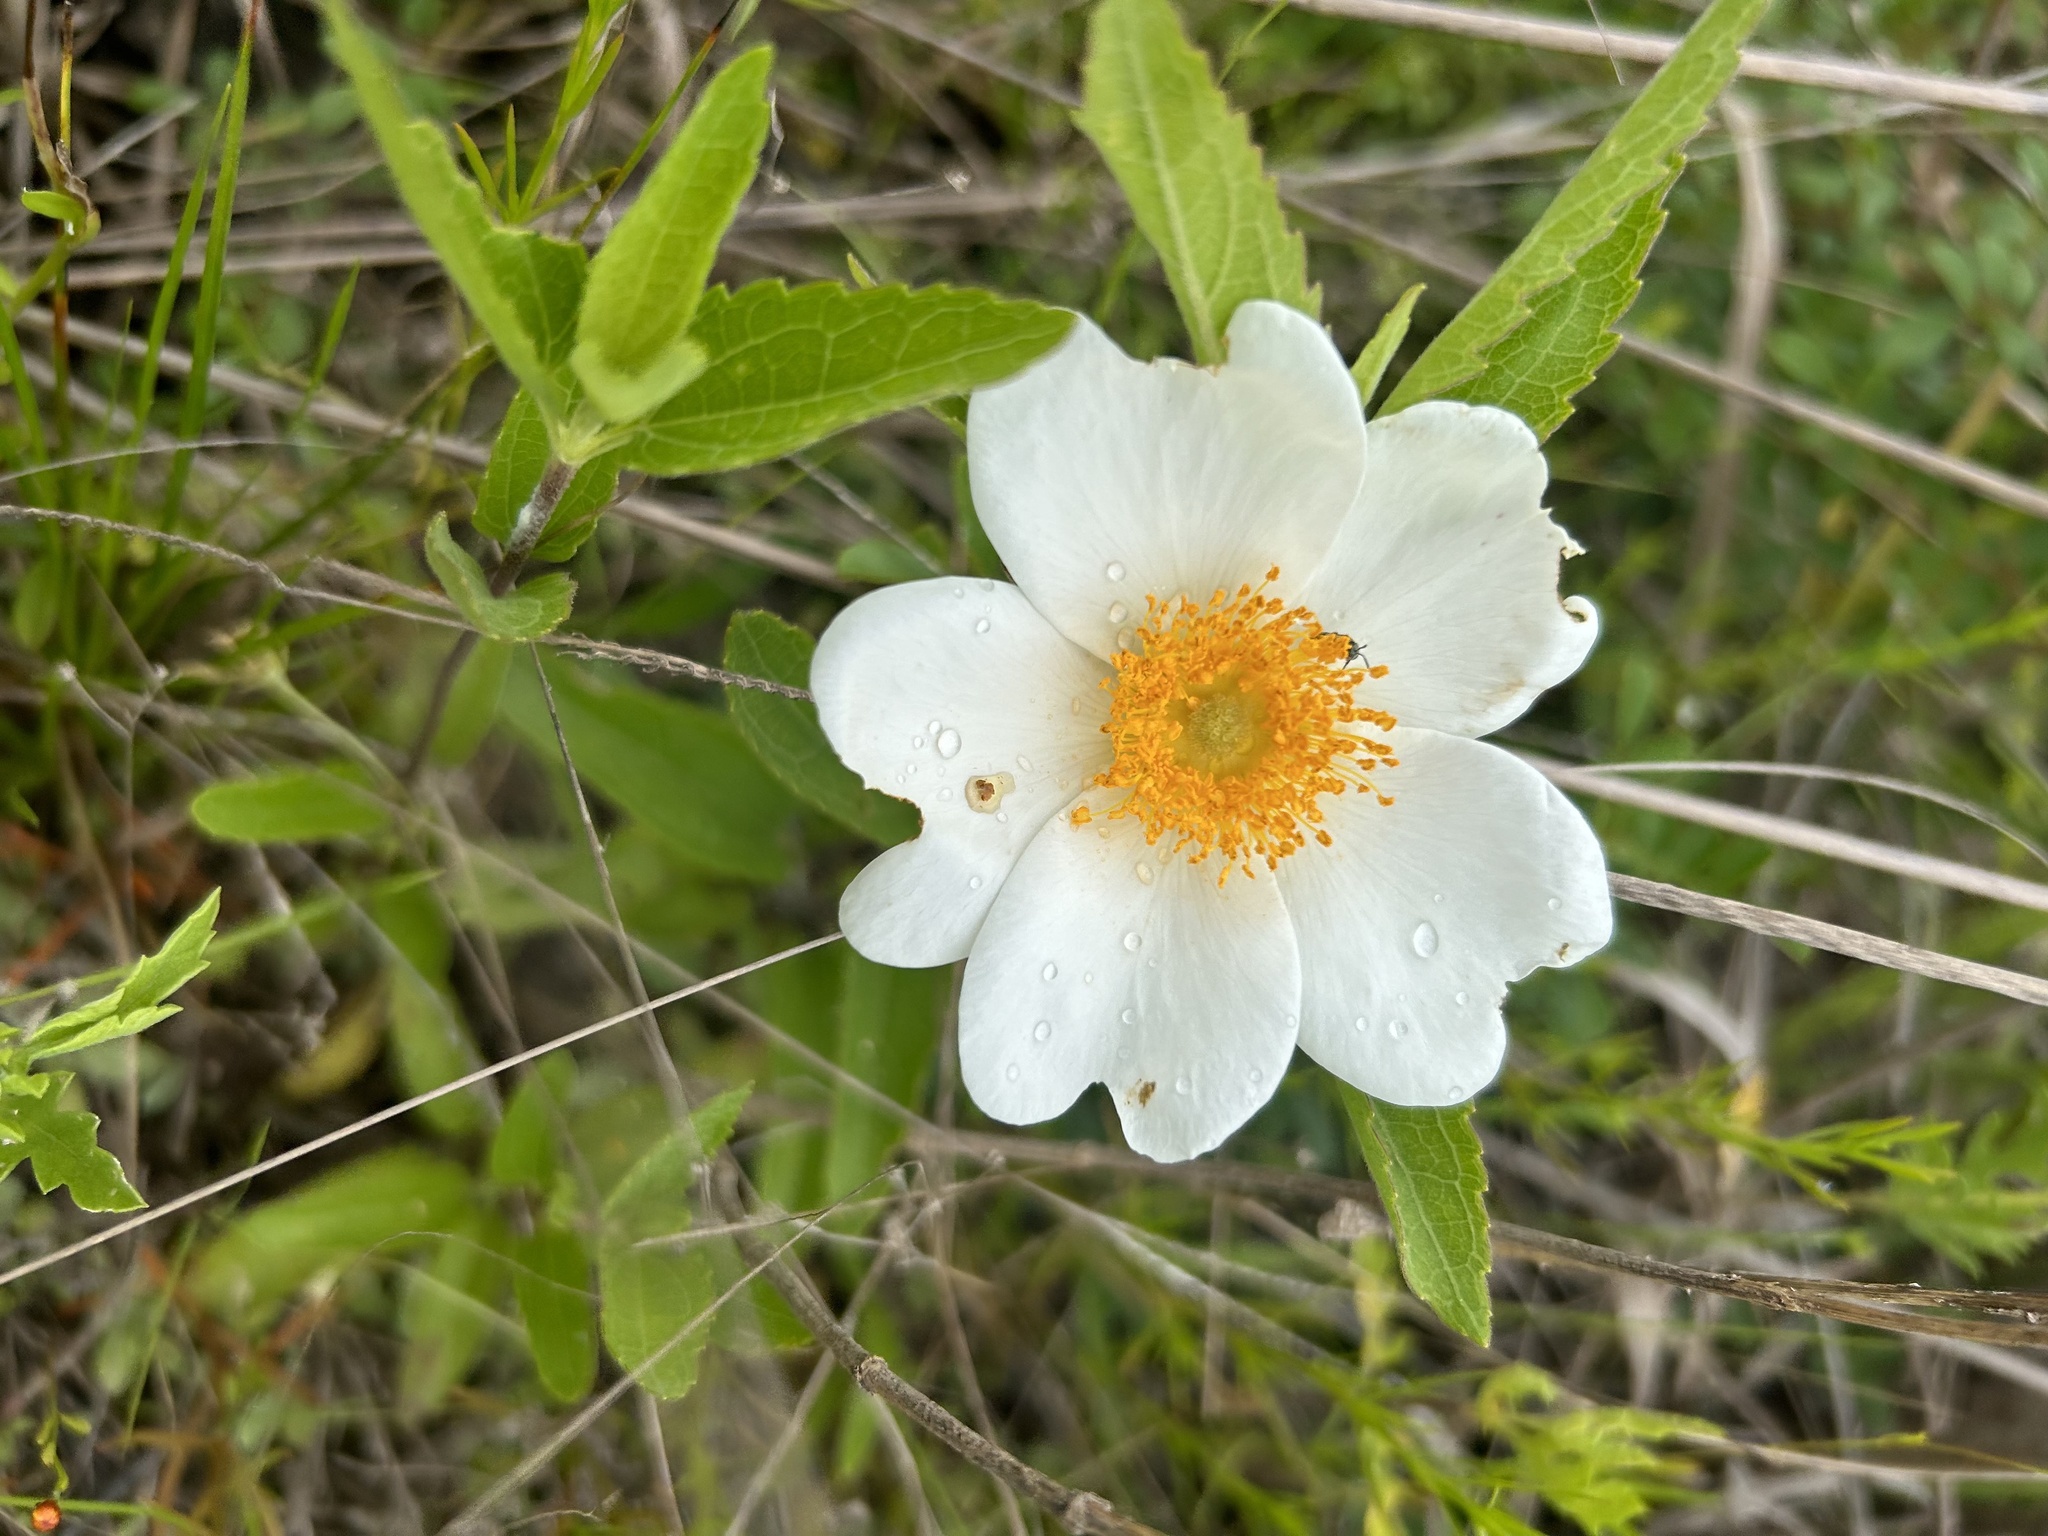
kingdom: Plantae
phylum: Tracheophyta
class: Magnoliopsida
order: Rosales
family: Rosaceae
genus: Rosa
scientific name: Rosa bracteata
